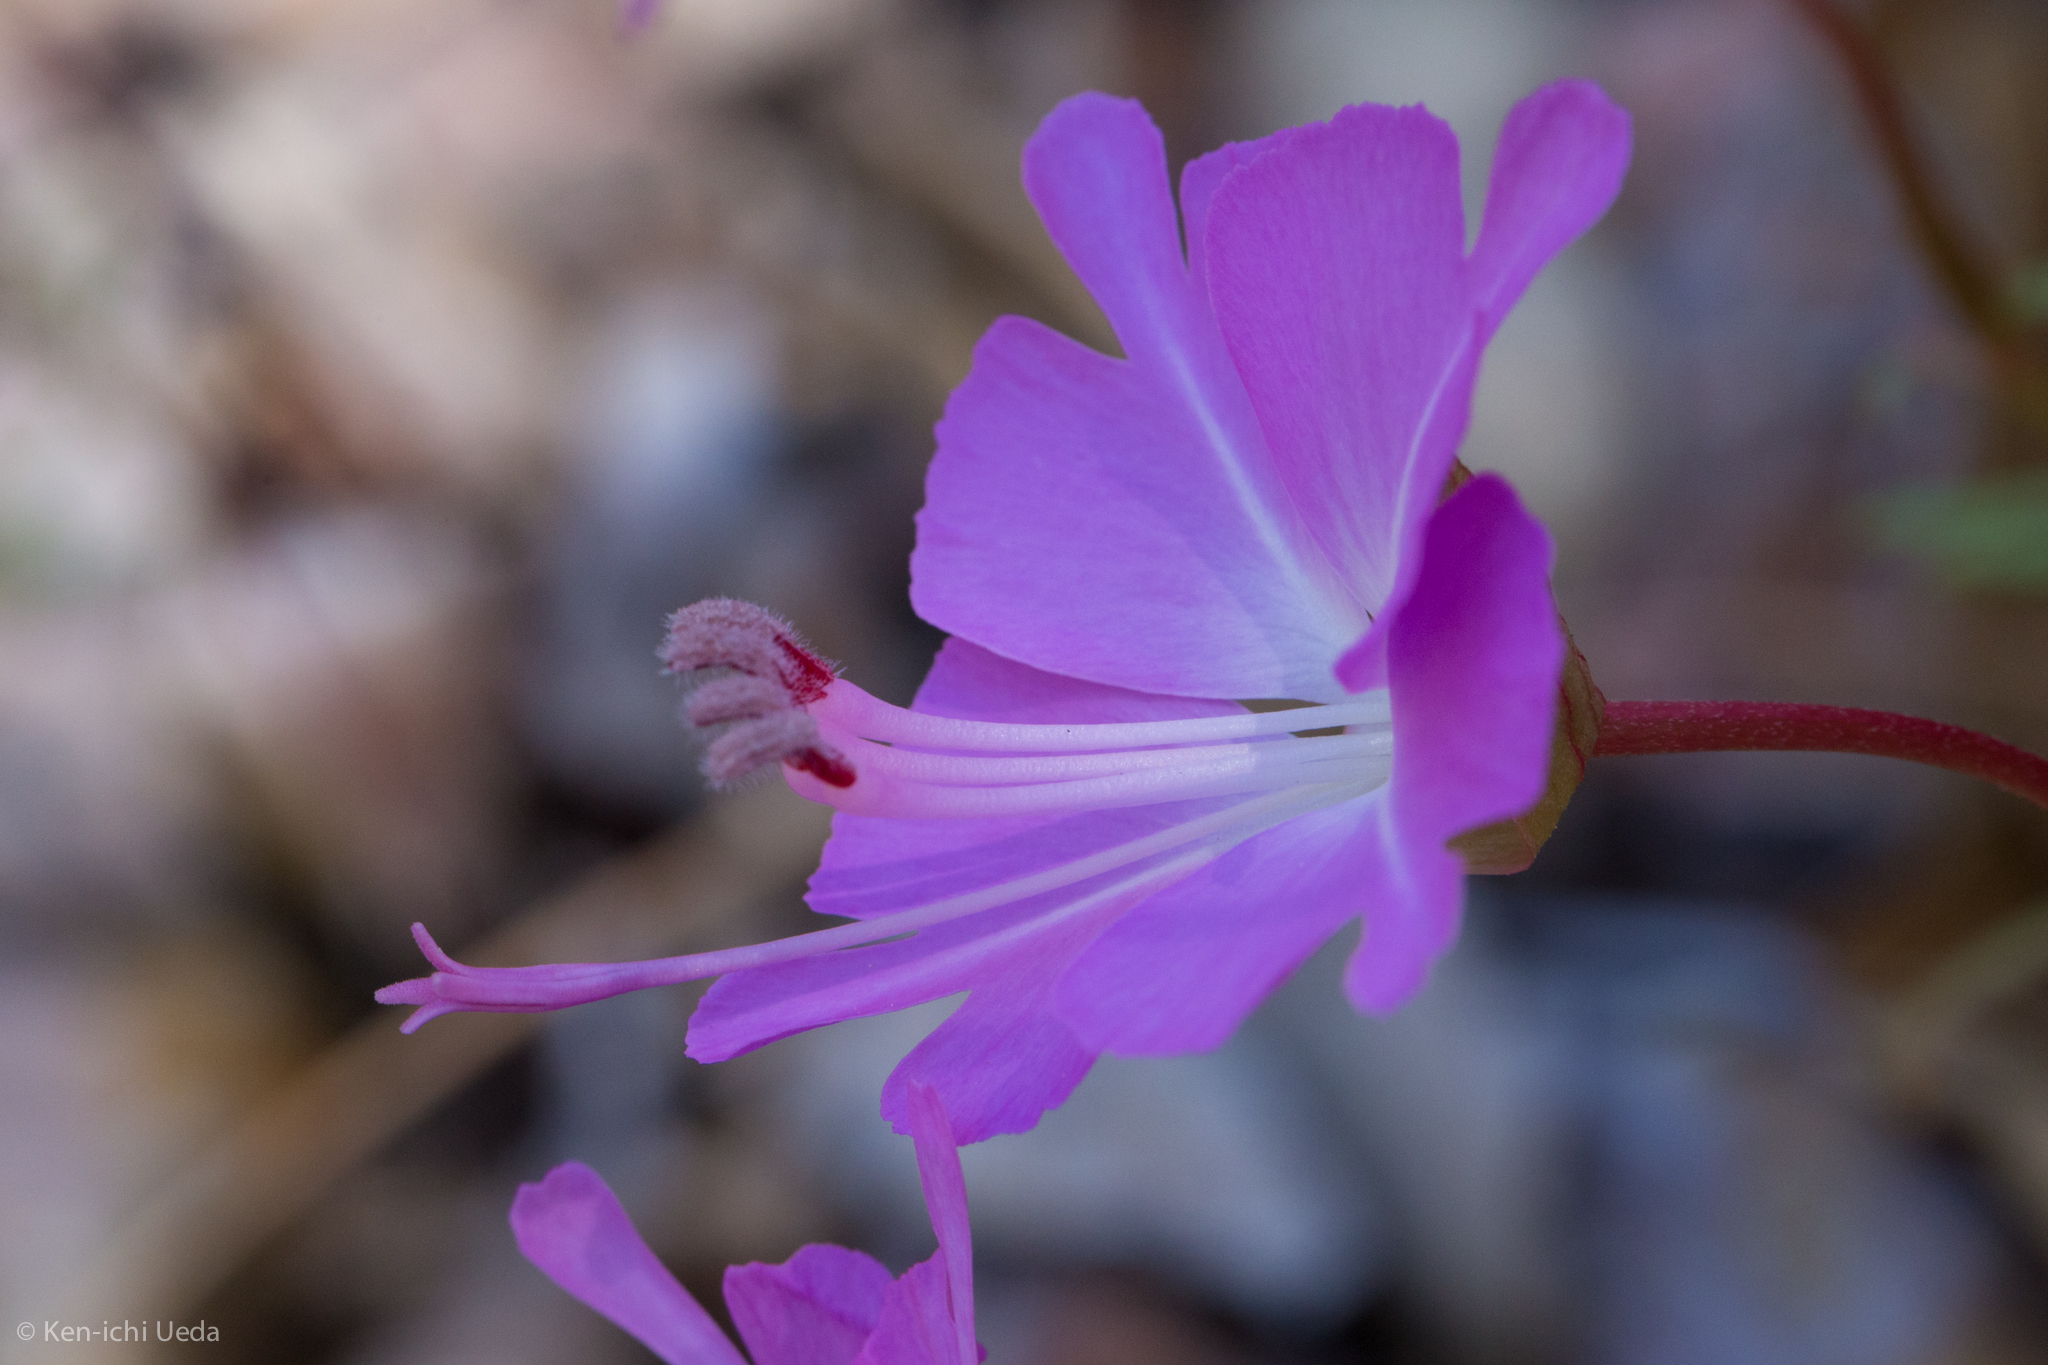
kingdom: Plantae
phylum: Tracheophyta
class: Magnoliopsida
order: Myrtales
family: Onagraceae
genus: Clarkia
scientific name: Clarkia breweri
